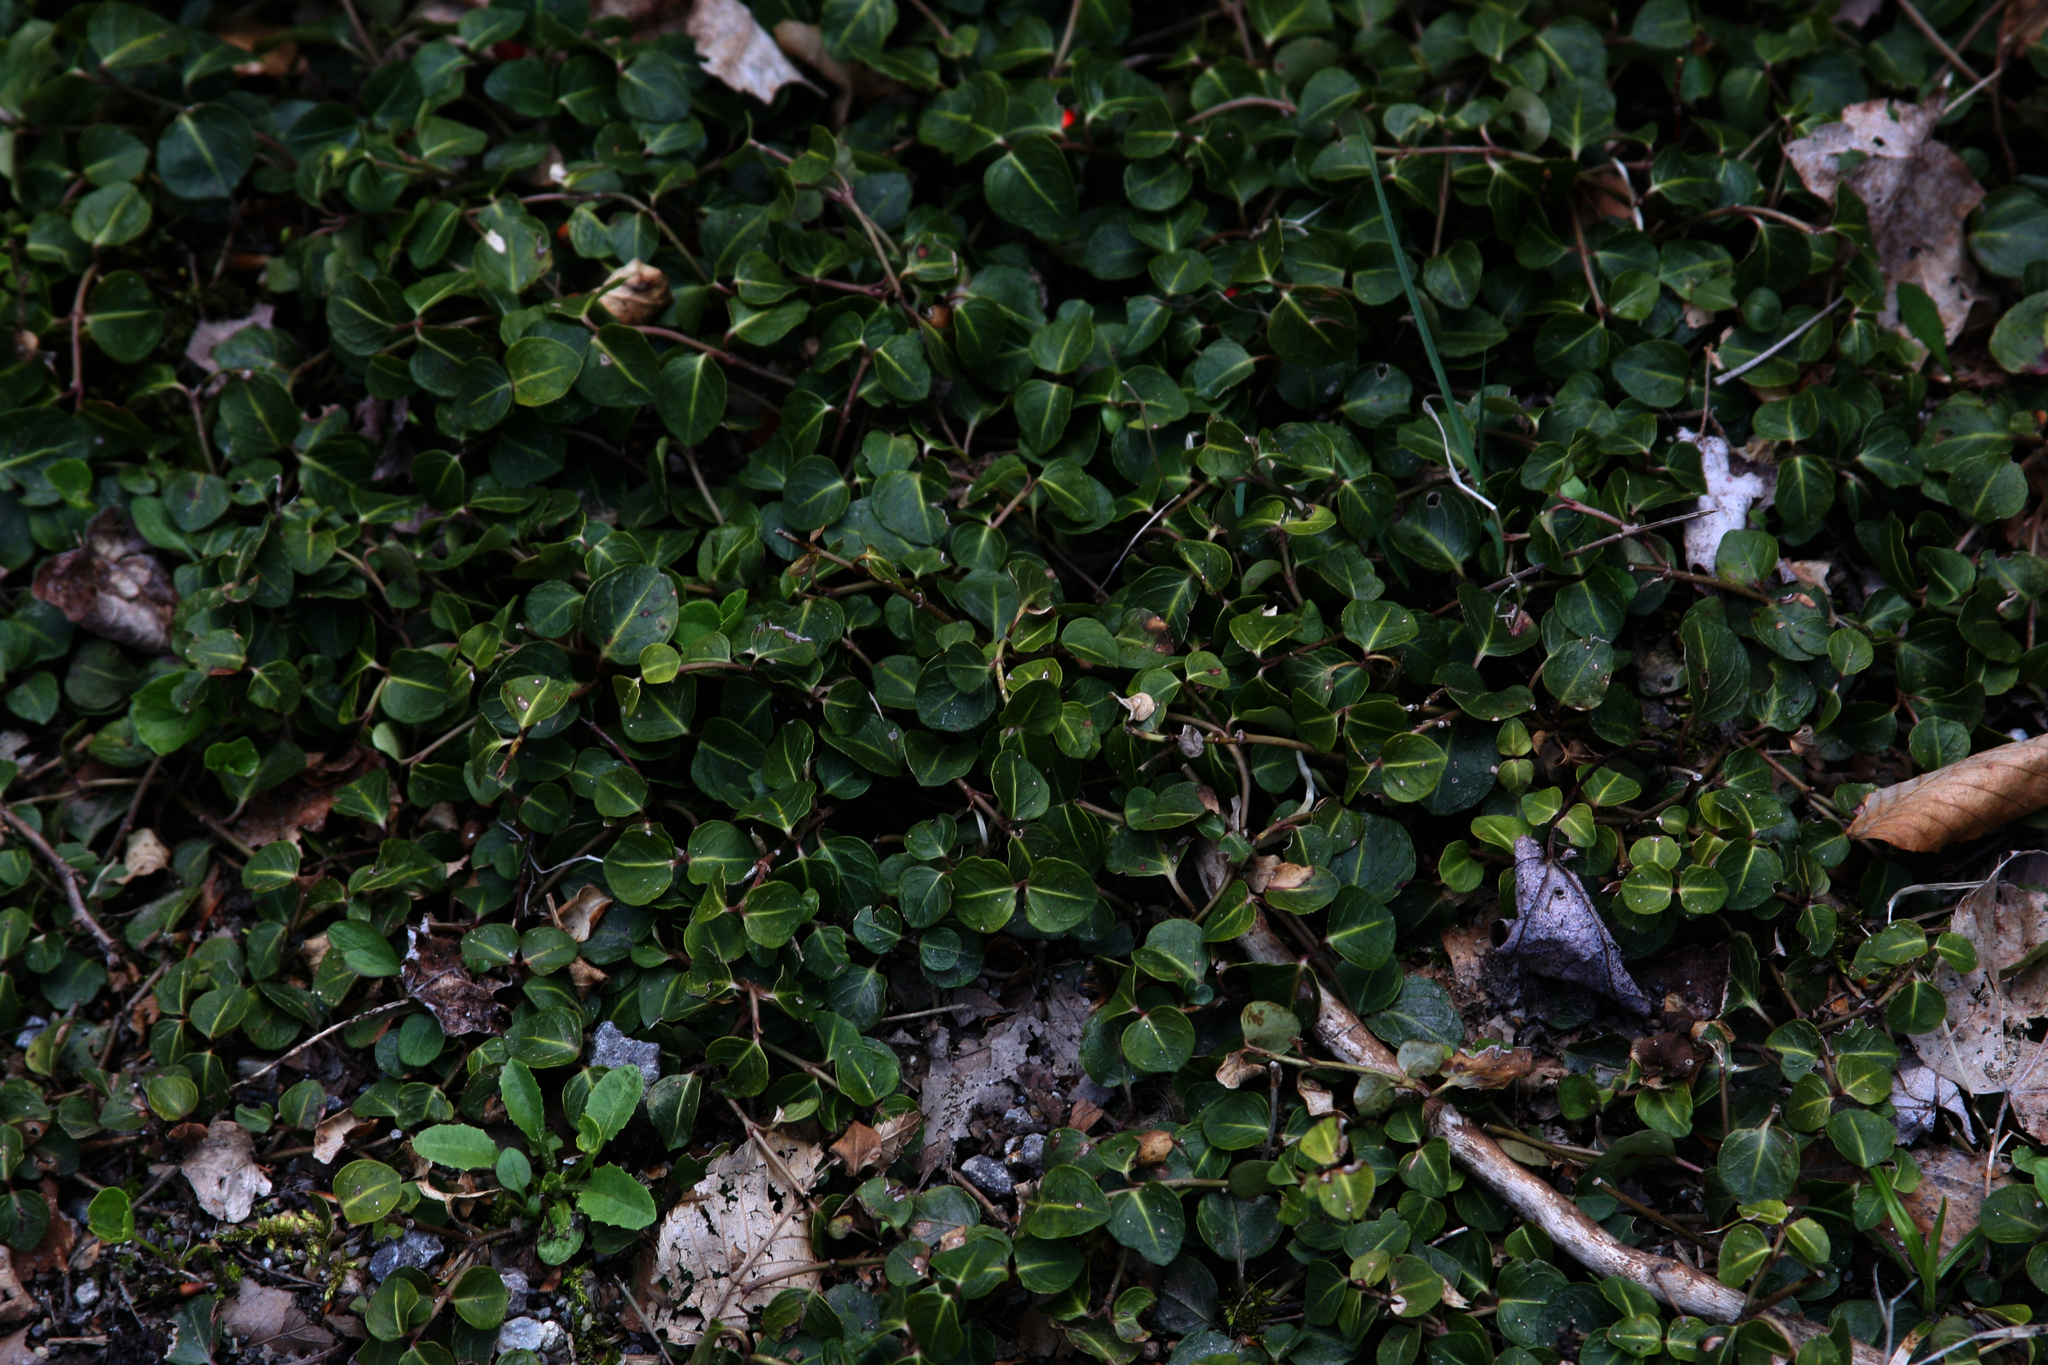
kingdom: Plantae
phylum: Tracheophyta
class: Magnoliopsida
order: Gentianales
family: Rubiaceae
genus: Mitchella
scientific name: Mitchella repens
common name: Partridge-berry
